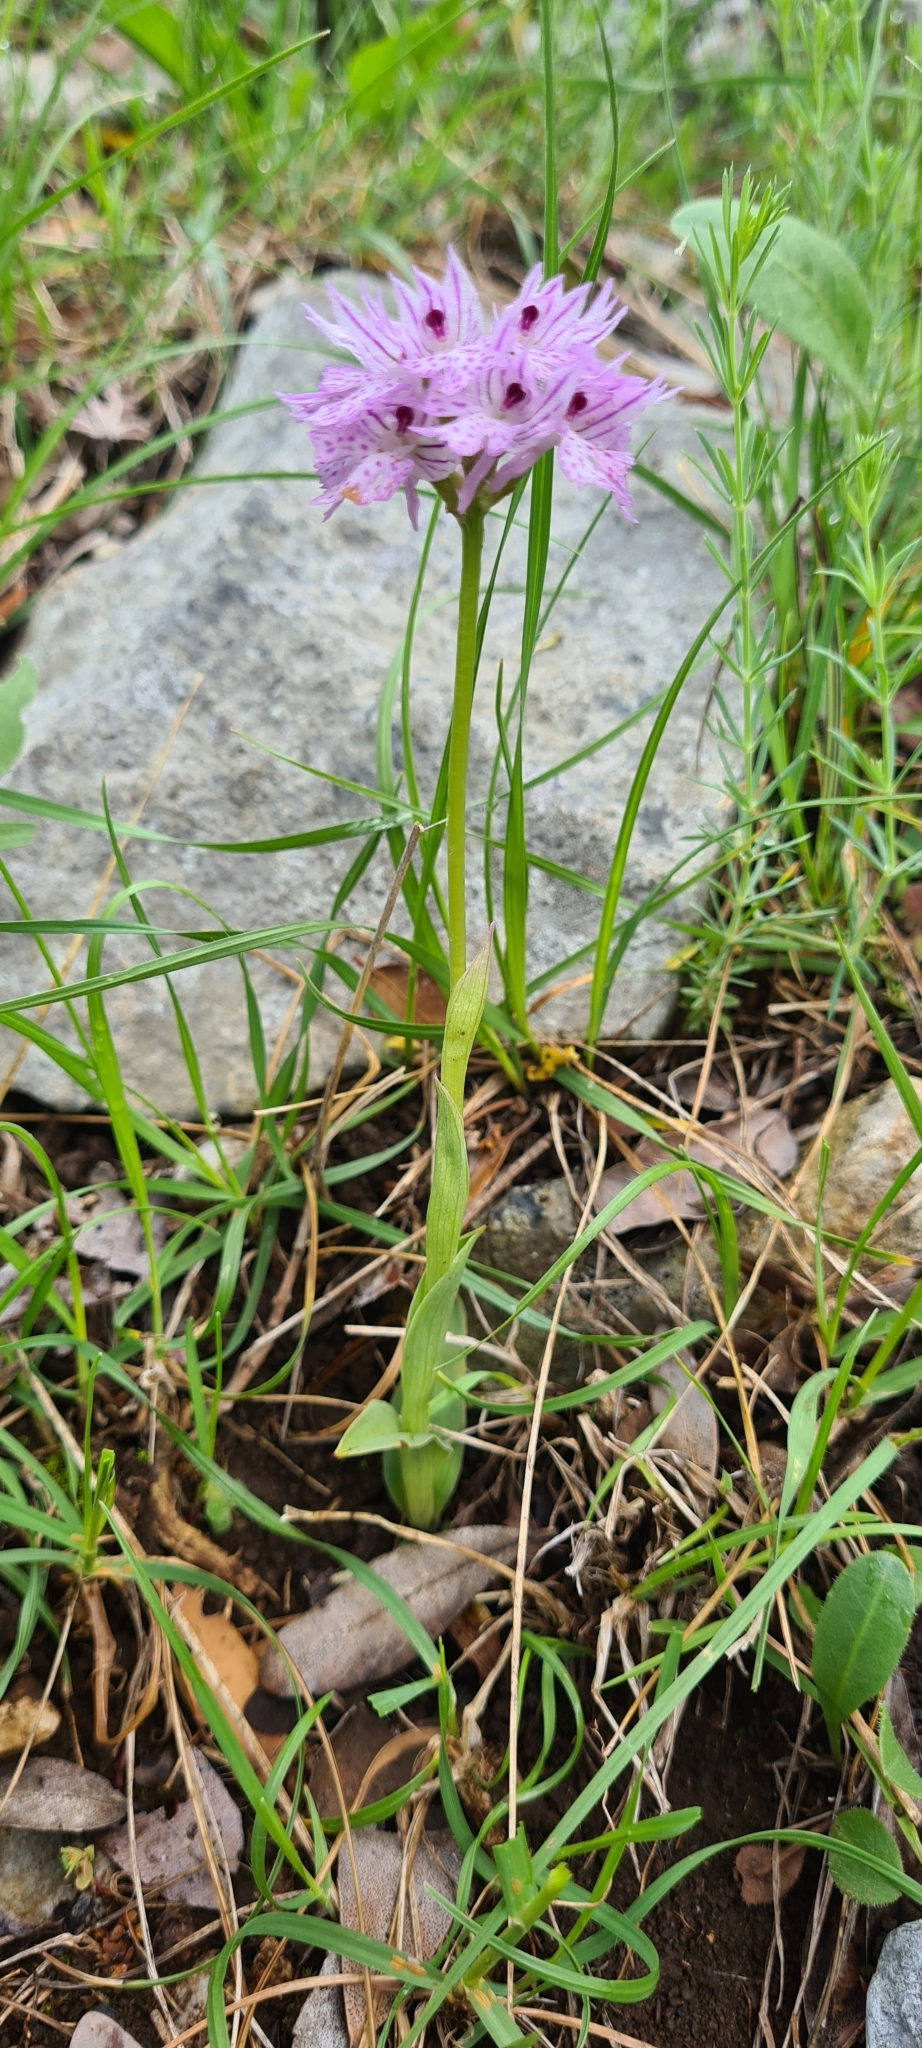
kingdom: Plantae
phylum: Tracheophyta
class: Liliopsida
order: Asparagales
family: Orchidaceae
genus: Neotinea
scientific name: Neotinea tridentata
